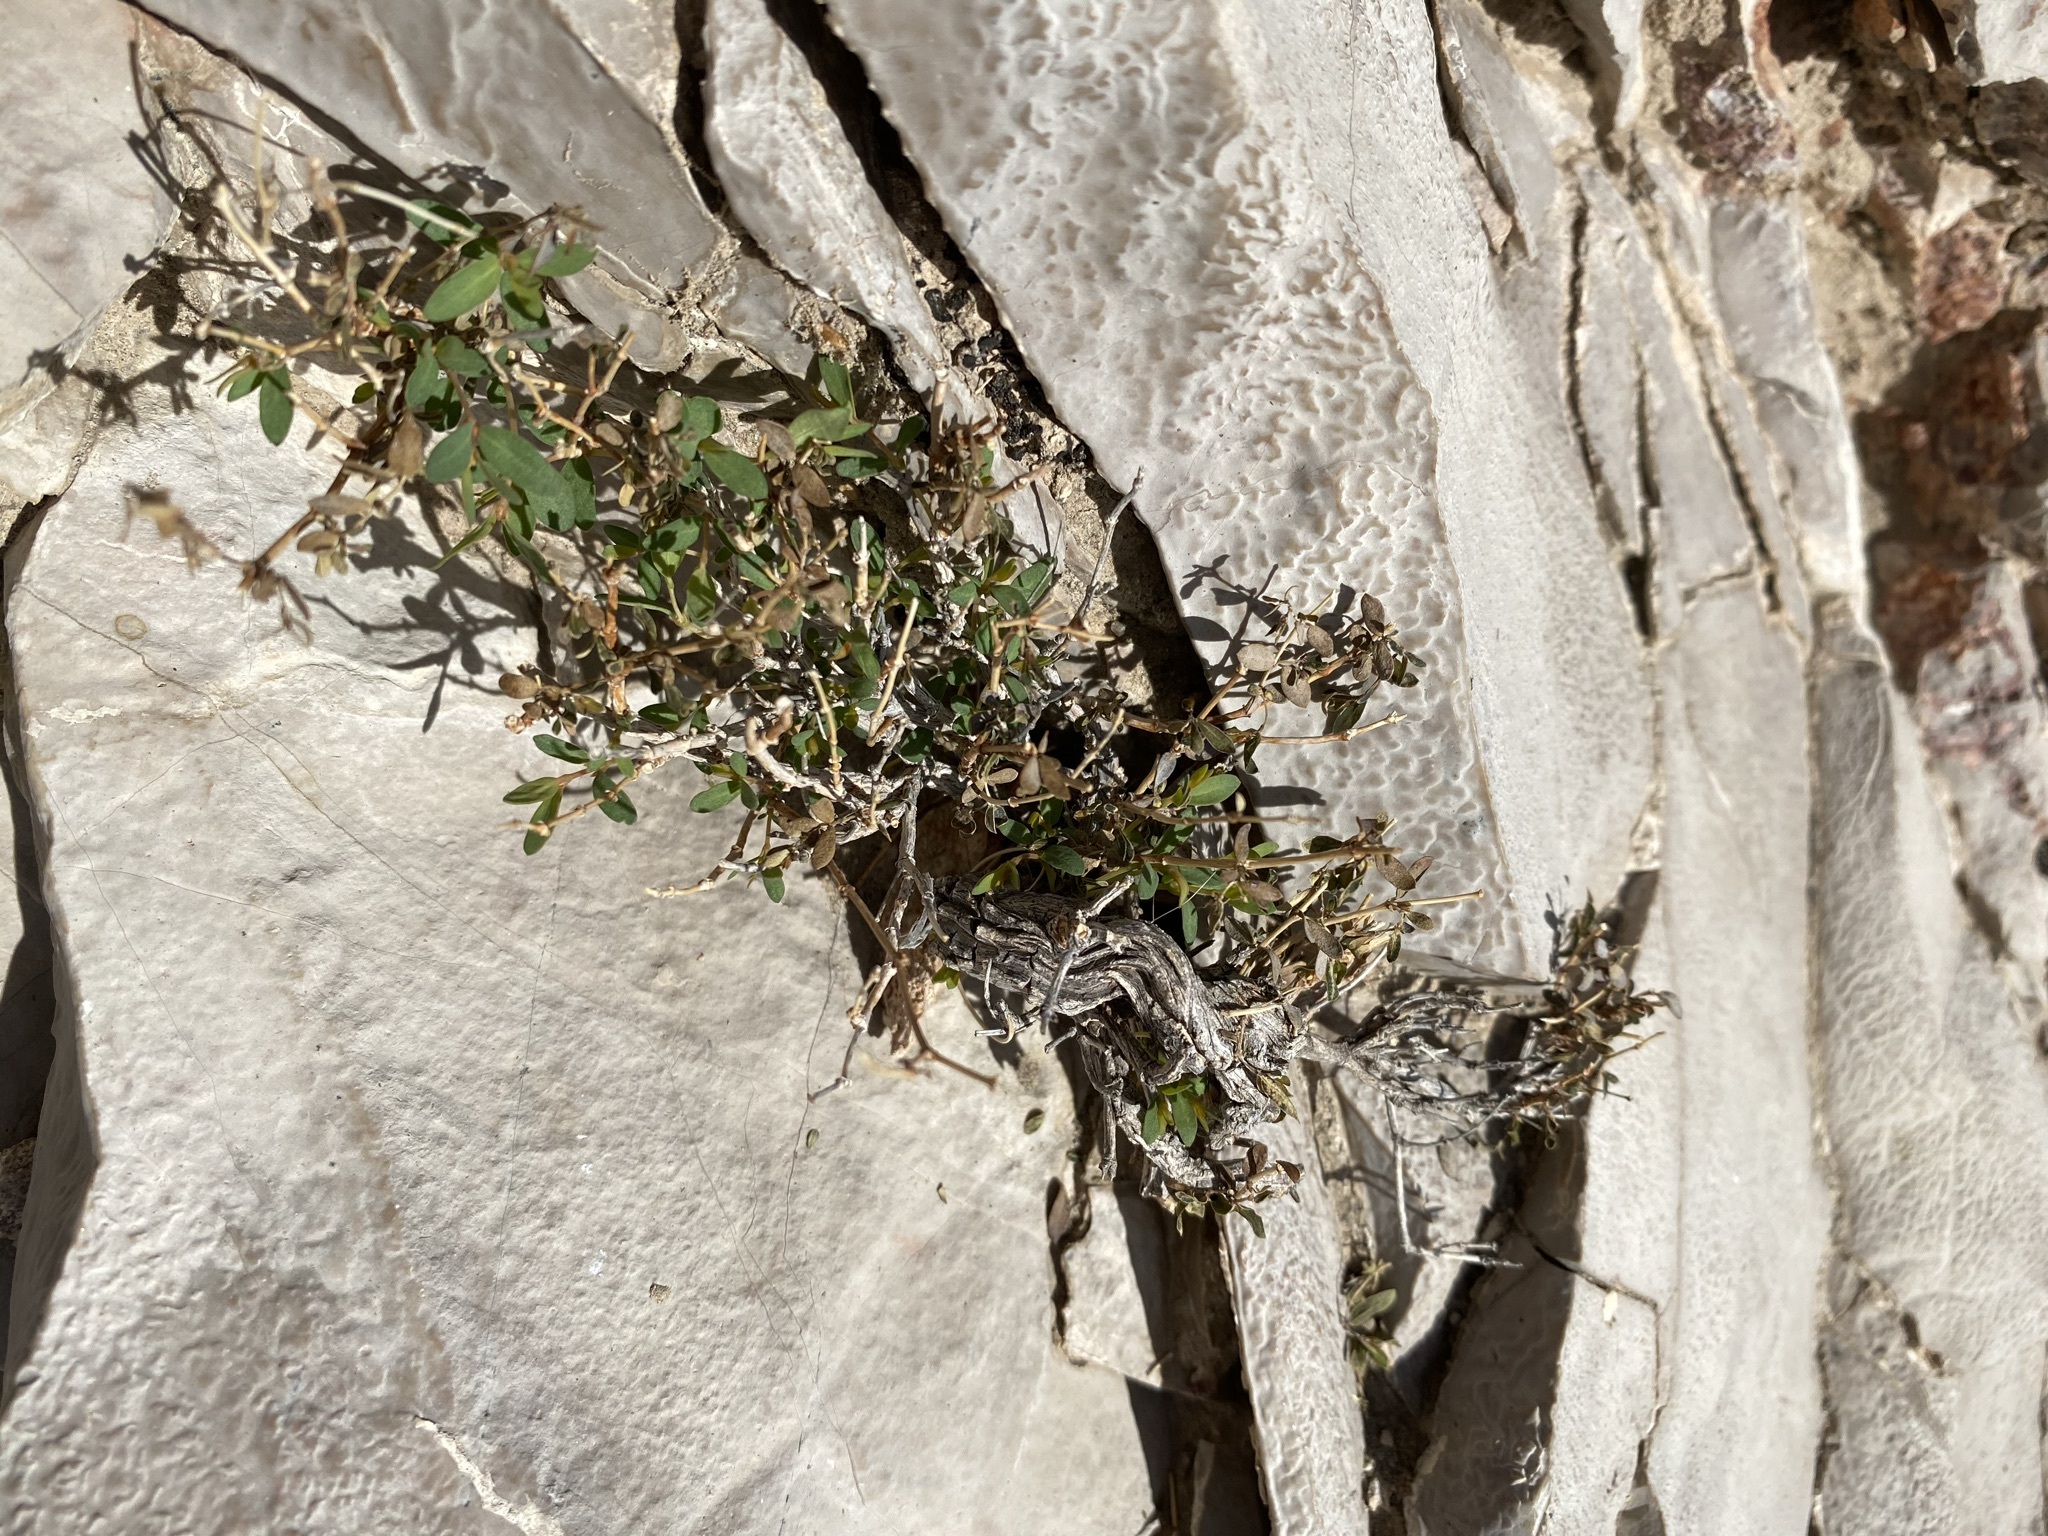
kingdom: Plantae
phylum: Tracheophyta
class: Magnoliopsida
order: Malpighiales
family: Euphorbiaceae
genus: Euphorbia
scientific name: Euphorbia triligulata
